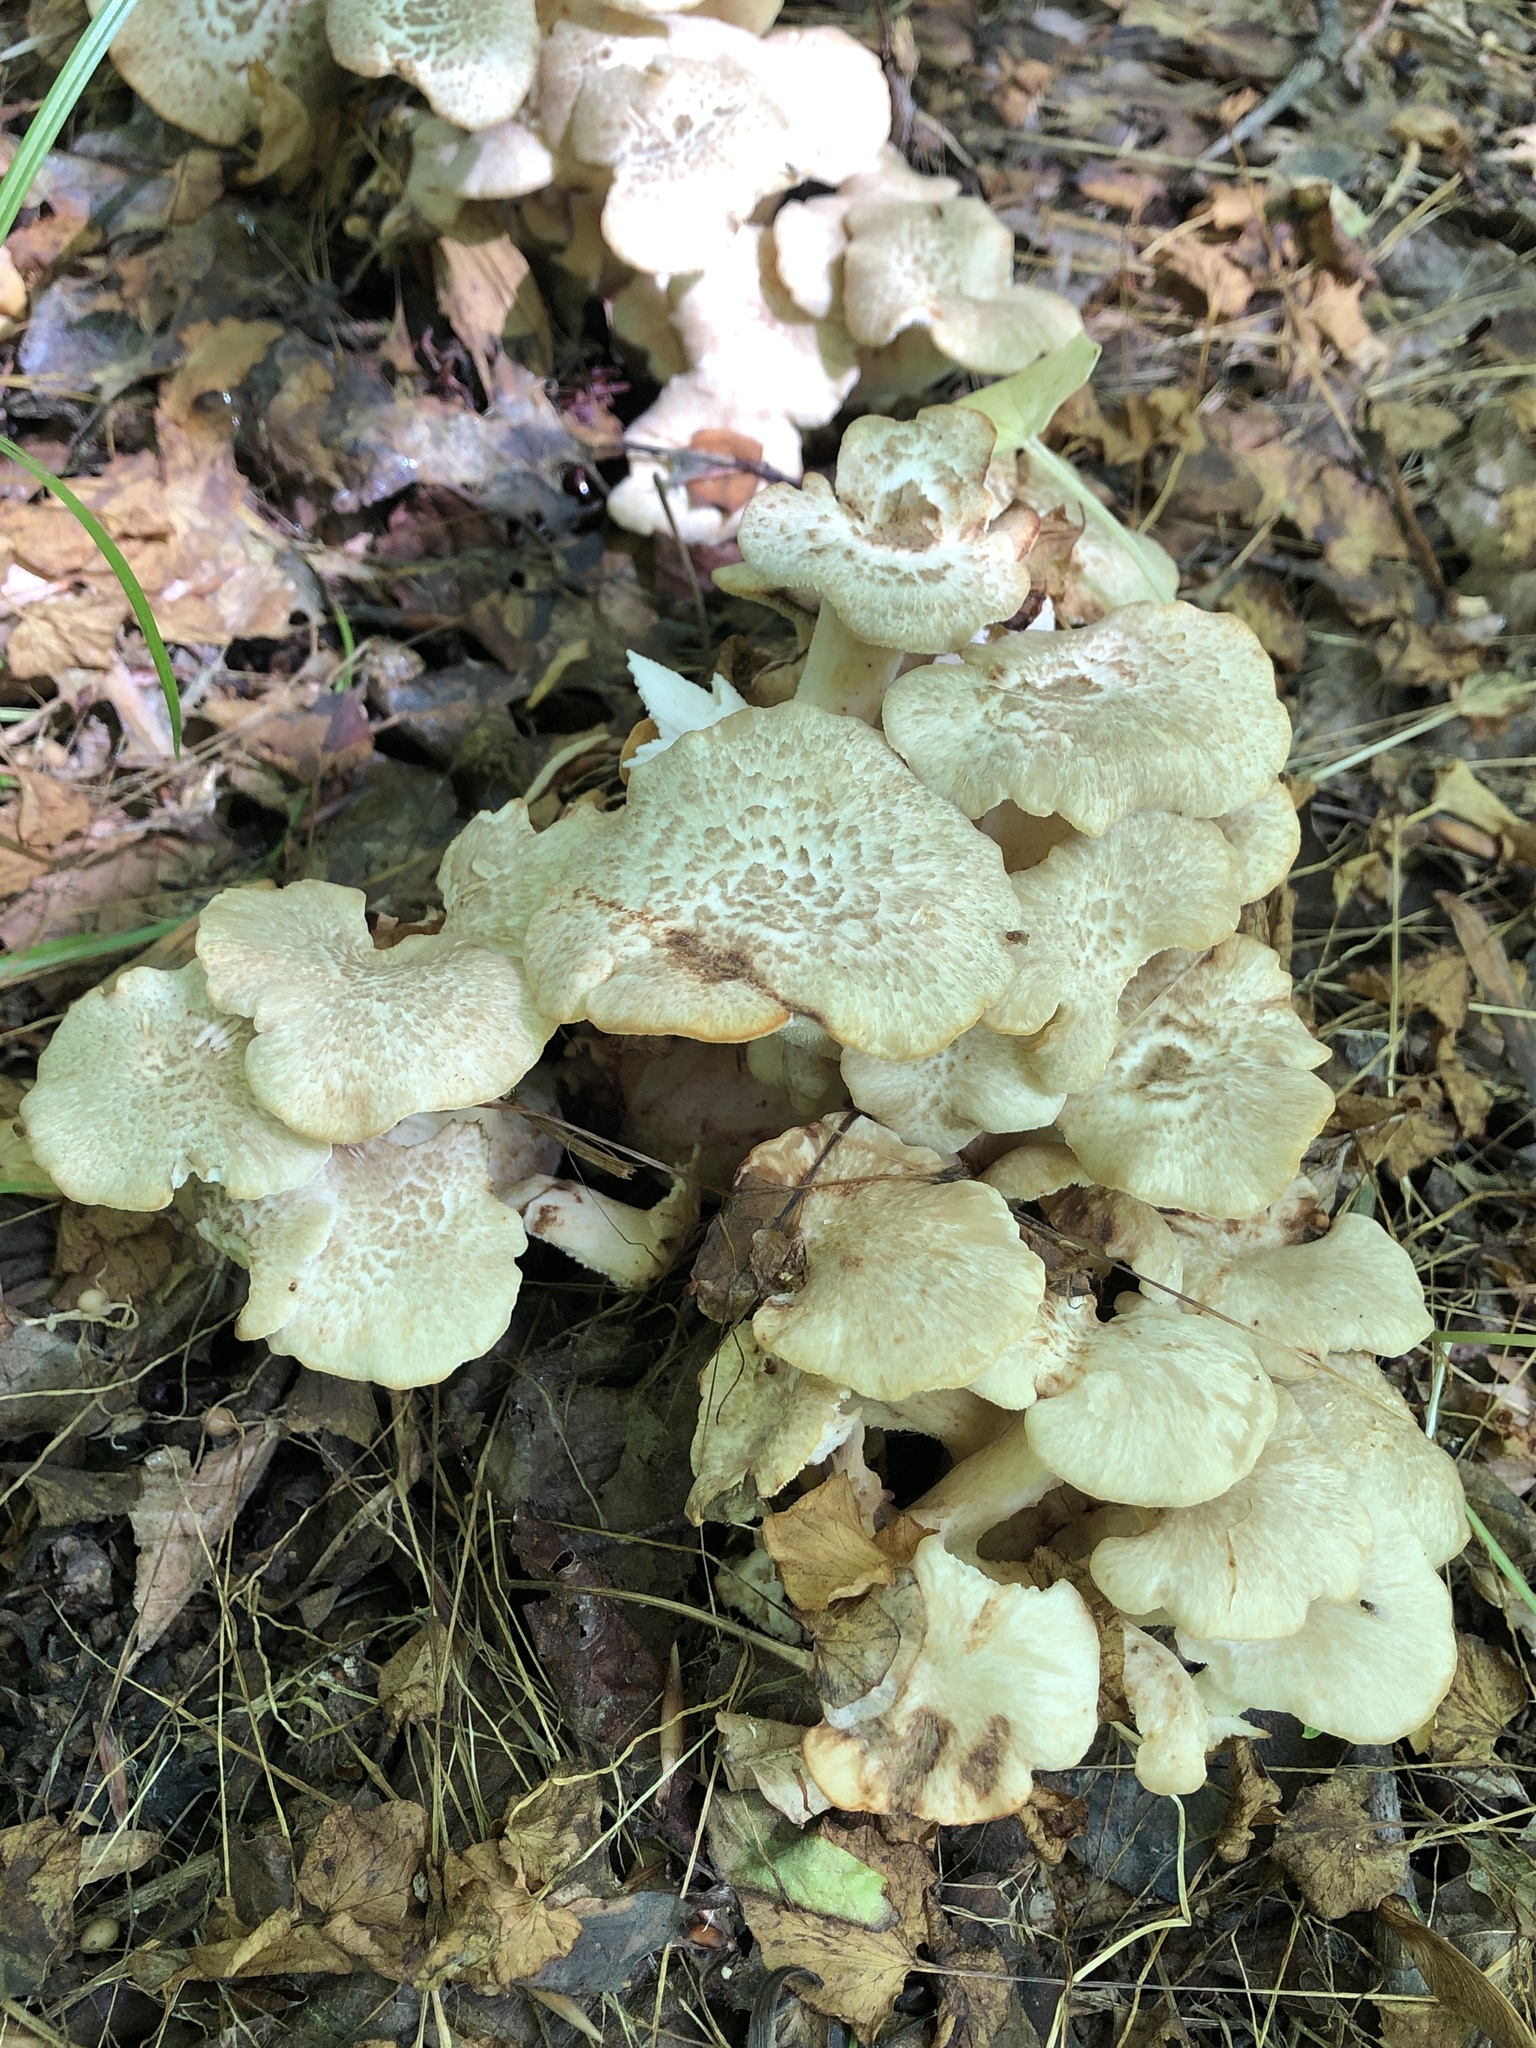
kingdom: Fungi
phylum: Basidiomycota
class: Agaricomycetes
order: Polyporales
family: Polyporaceae
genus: Polyporus
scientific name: Polyporus umbellatus
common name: Umbrella polypore
